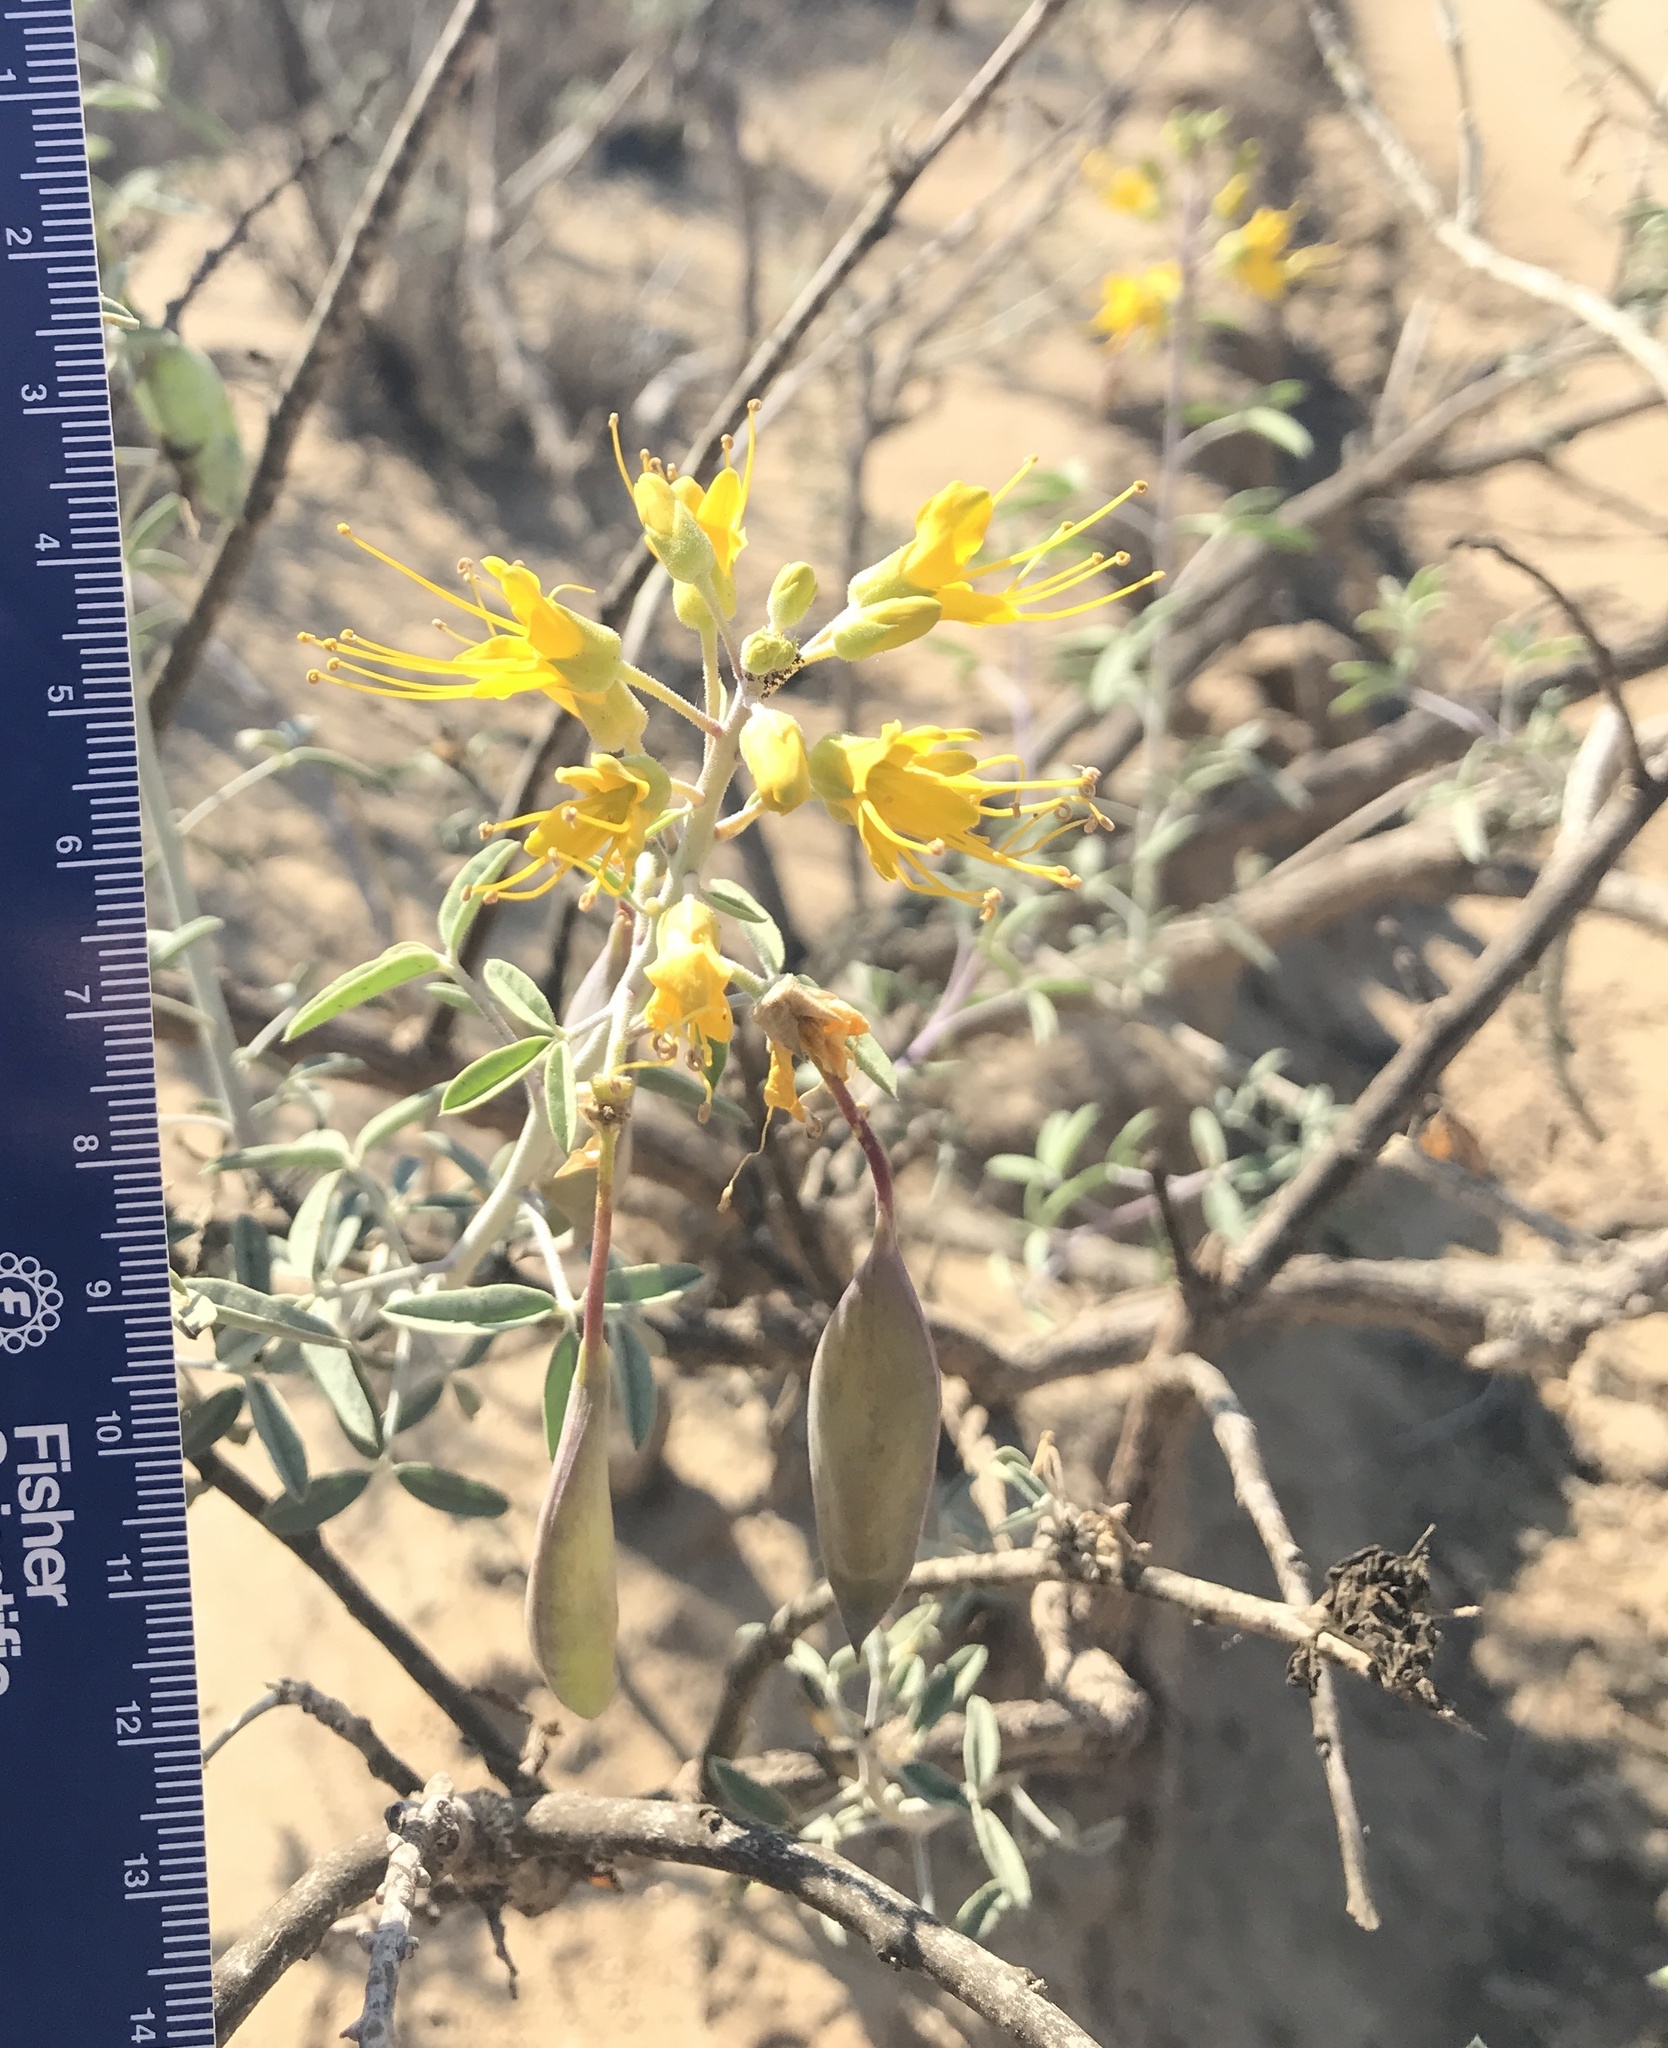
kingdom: Plantae
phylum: Tracheophyta
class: Magnoliopsida
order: Brassicales
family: Cleomaceae
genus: Cleomella
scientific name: Cleomella arborea
